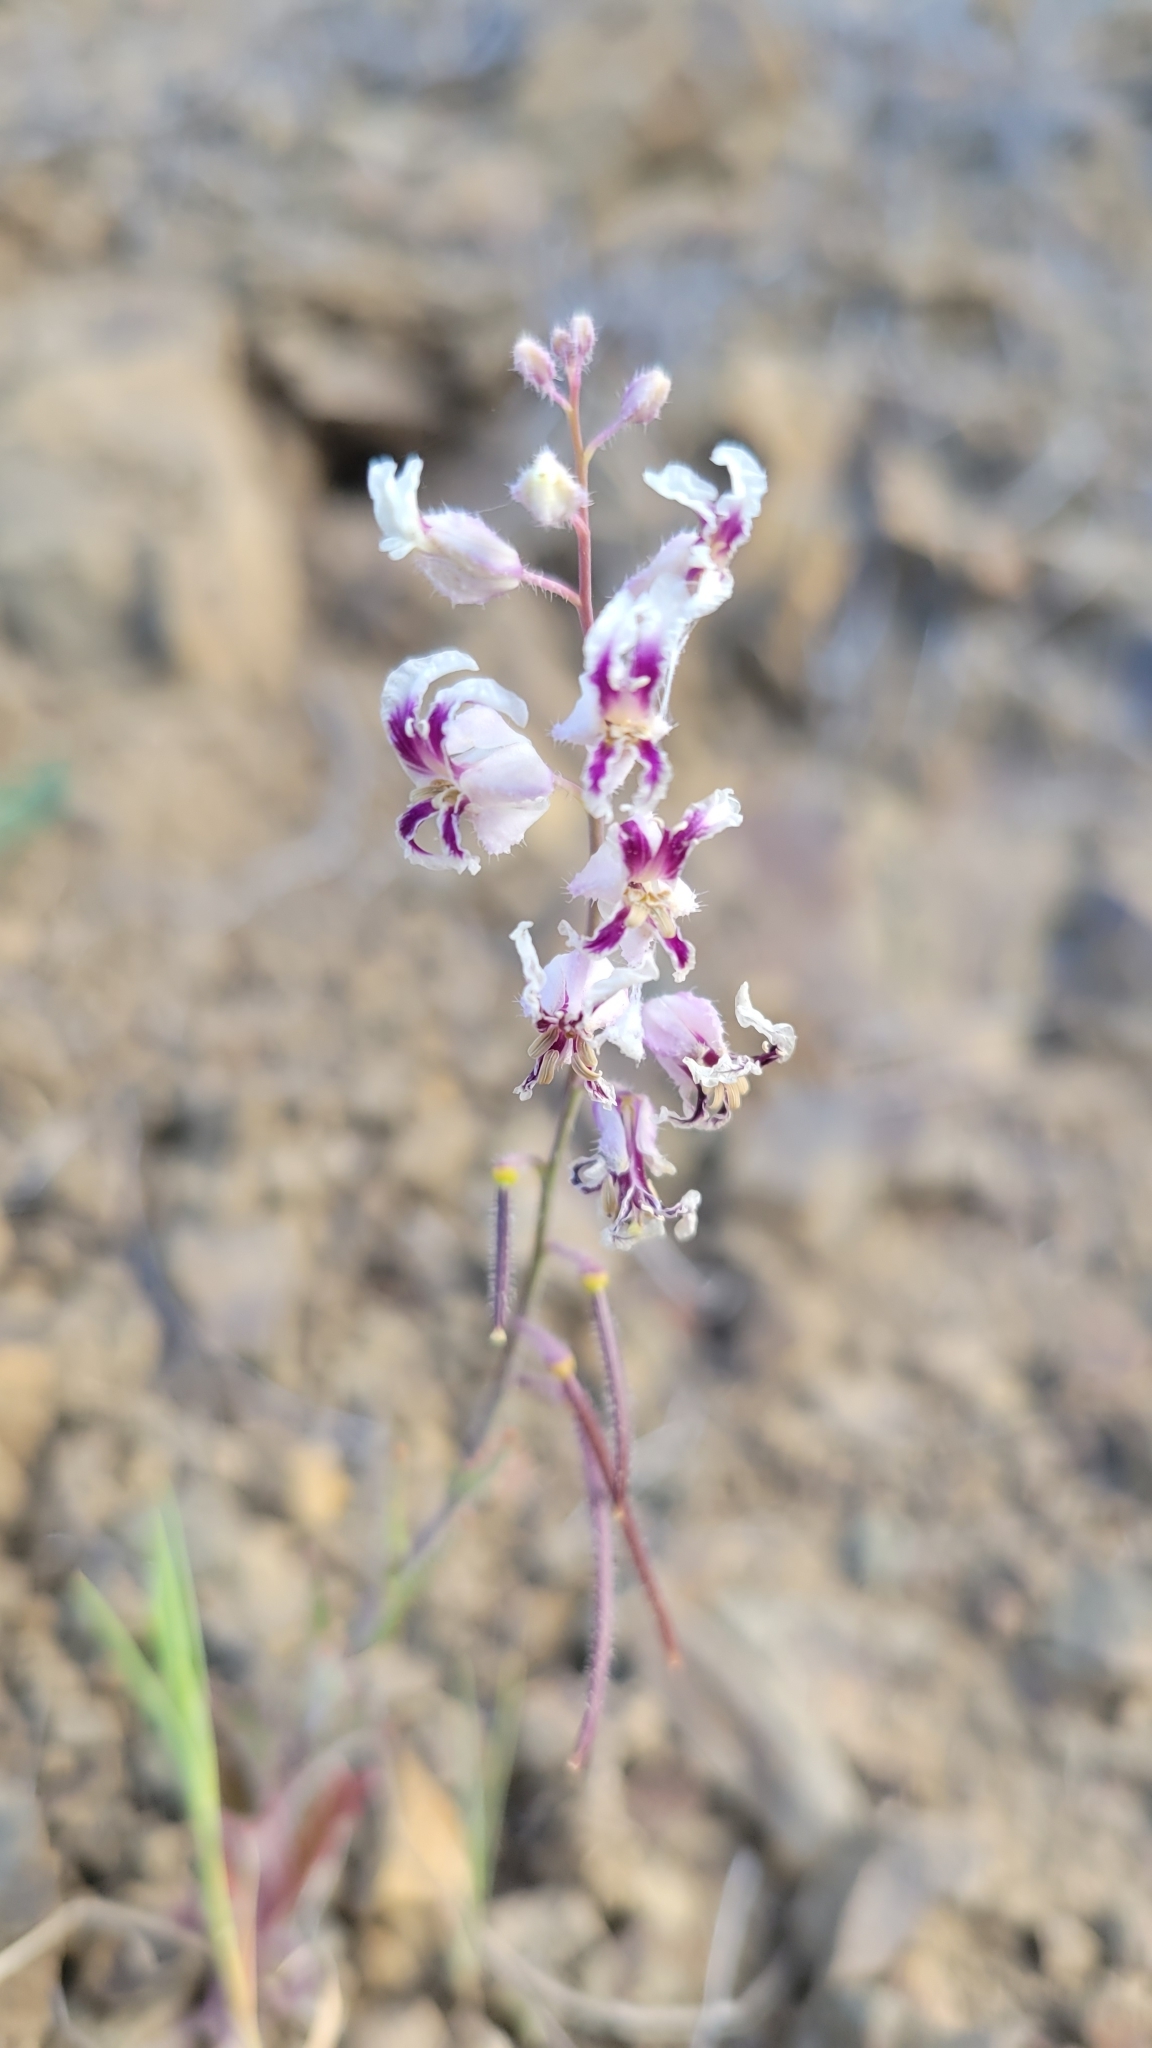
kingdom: Plantae
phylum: Tracheophyta
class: Magnoliopsida
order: Brassicales
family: Brassicaceae
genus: Streptanthus
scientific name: Streptanthus glandulosus
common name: Jewel-flower
